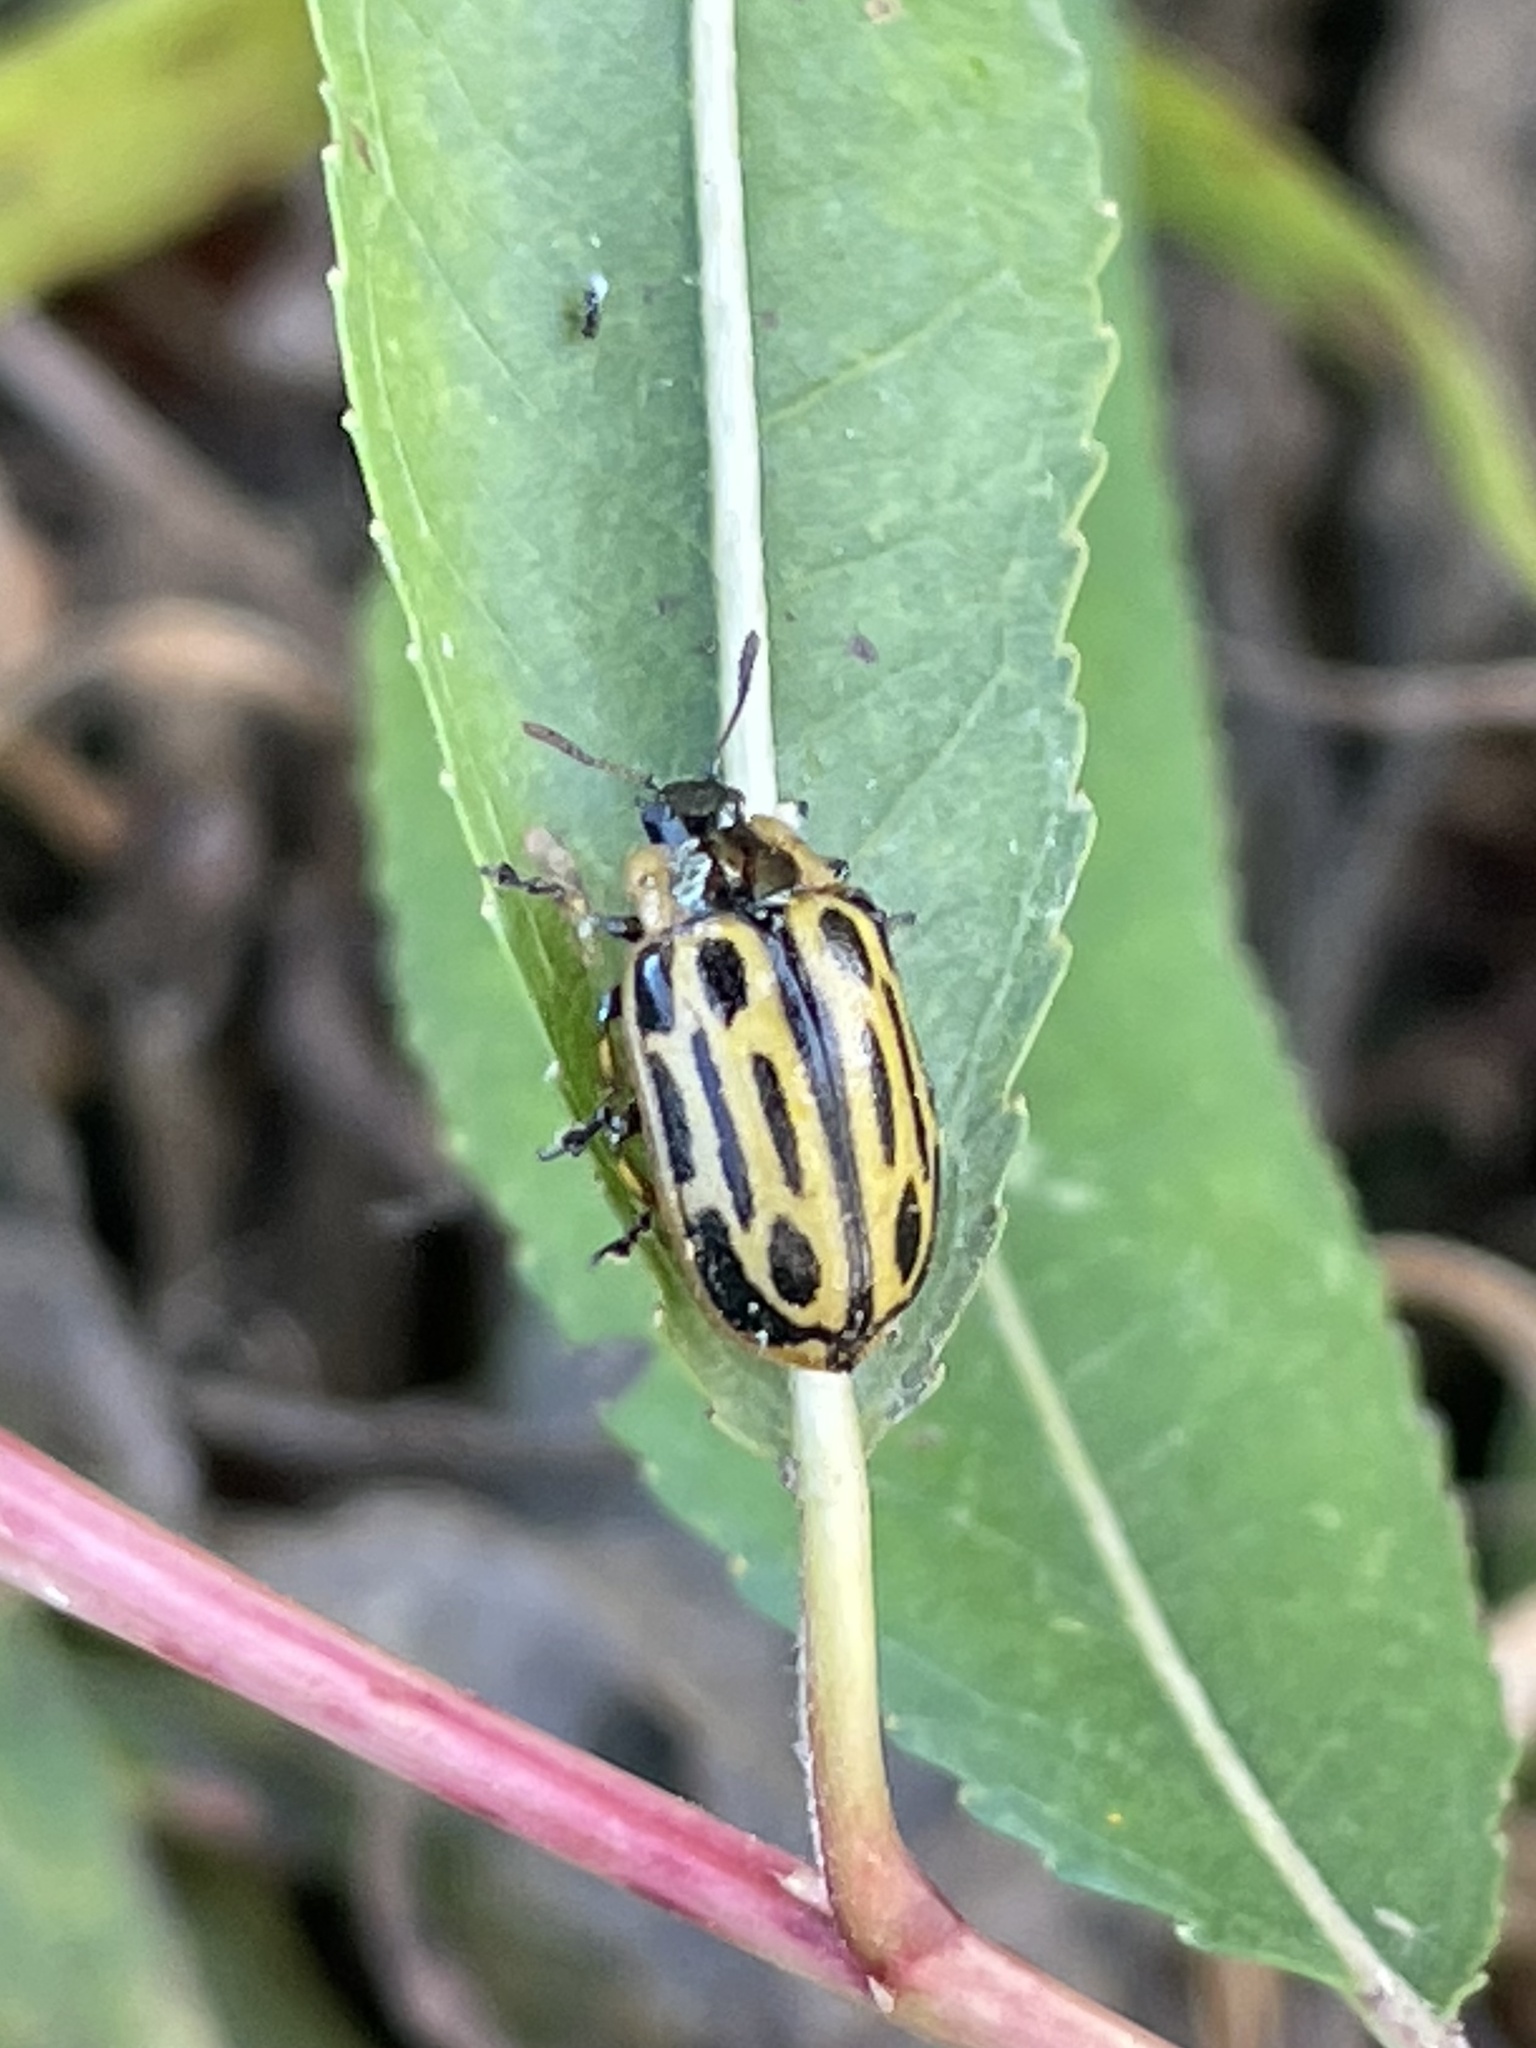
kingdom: Animalia
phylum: Arthropoda
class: Insecta
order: Coleoptera
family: Chrysomelidae
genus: Aethiopocassis
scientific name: Aethiopocassis scripta
